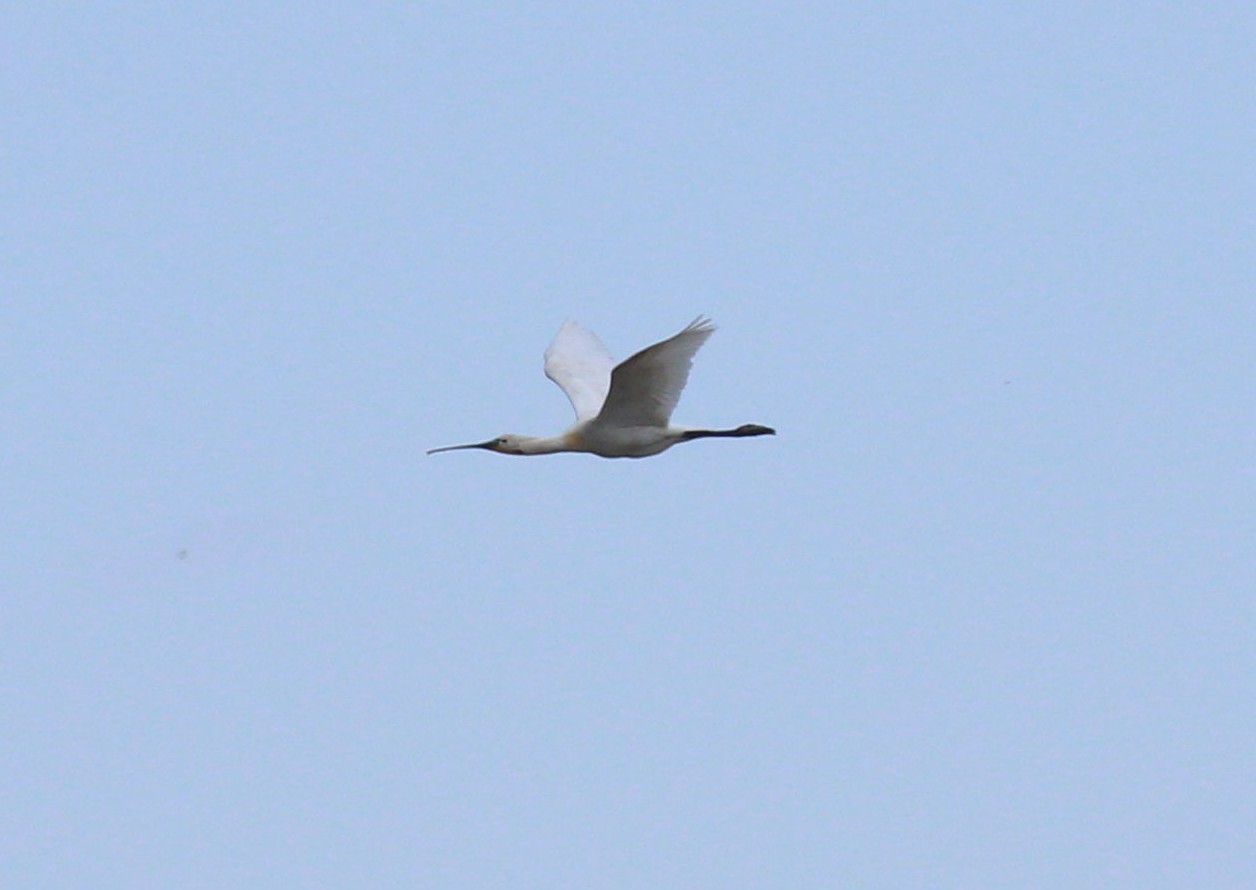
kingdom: Animalia
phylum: Chordata
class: Aves
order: Pelecaniformes
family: Threskiornithidae
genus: Platalea
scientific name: Platalea leucorodia
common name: Eurasian spoonbill
